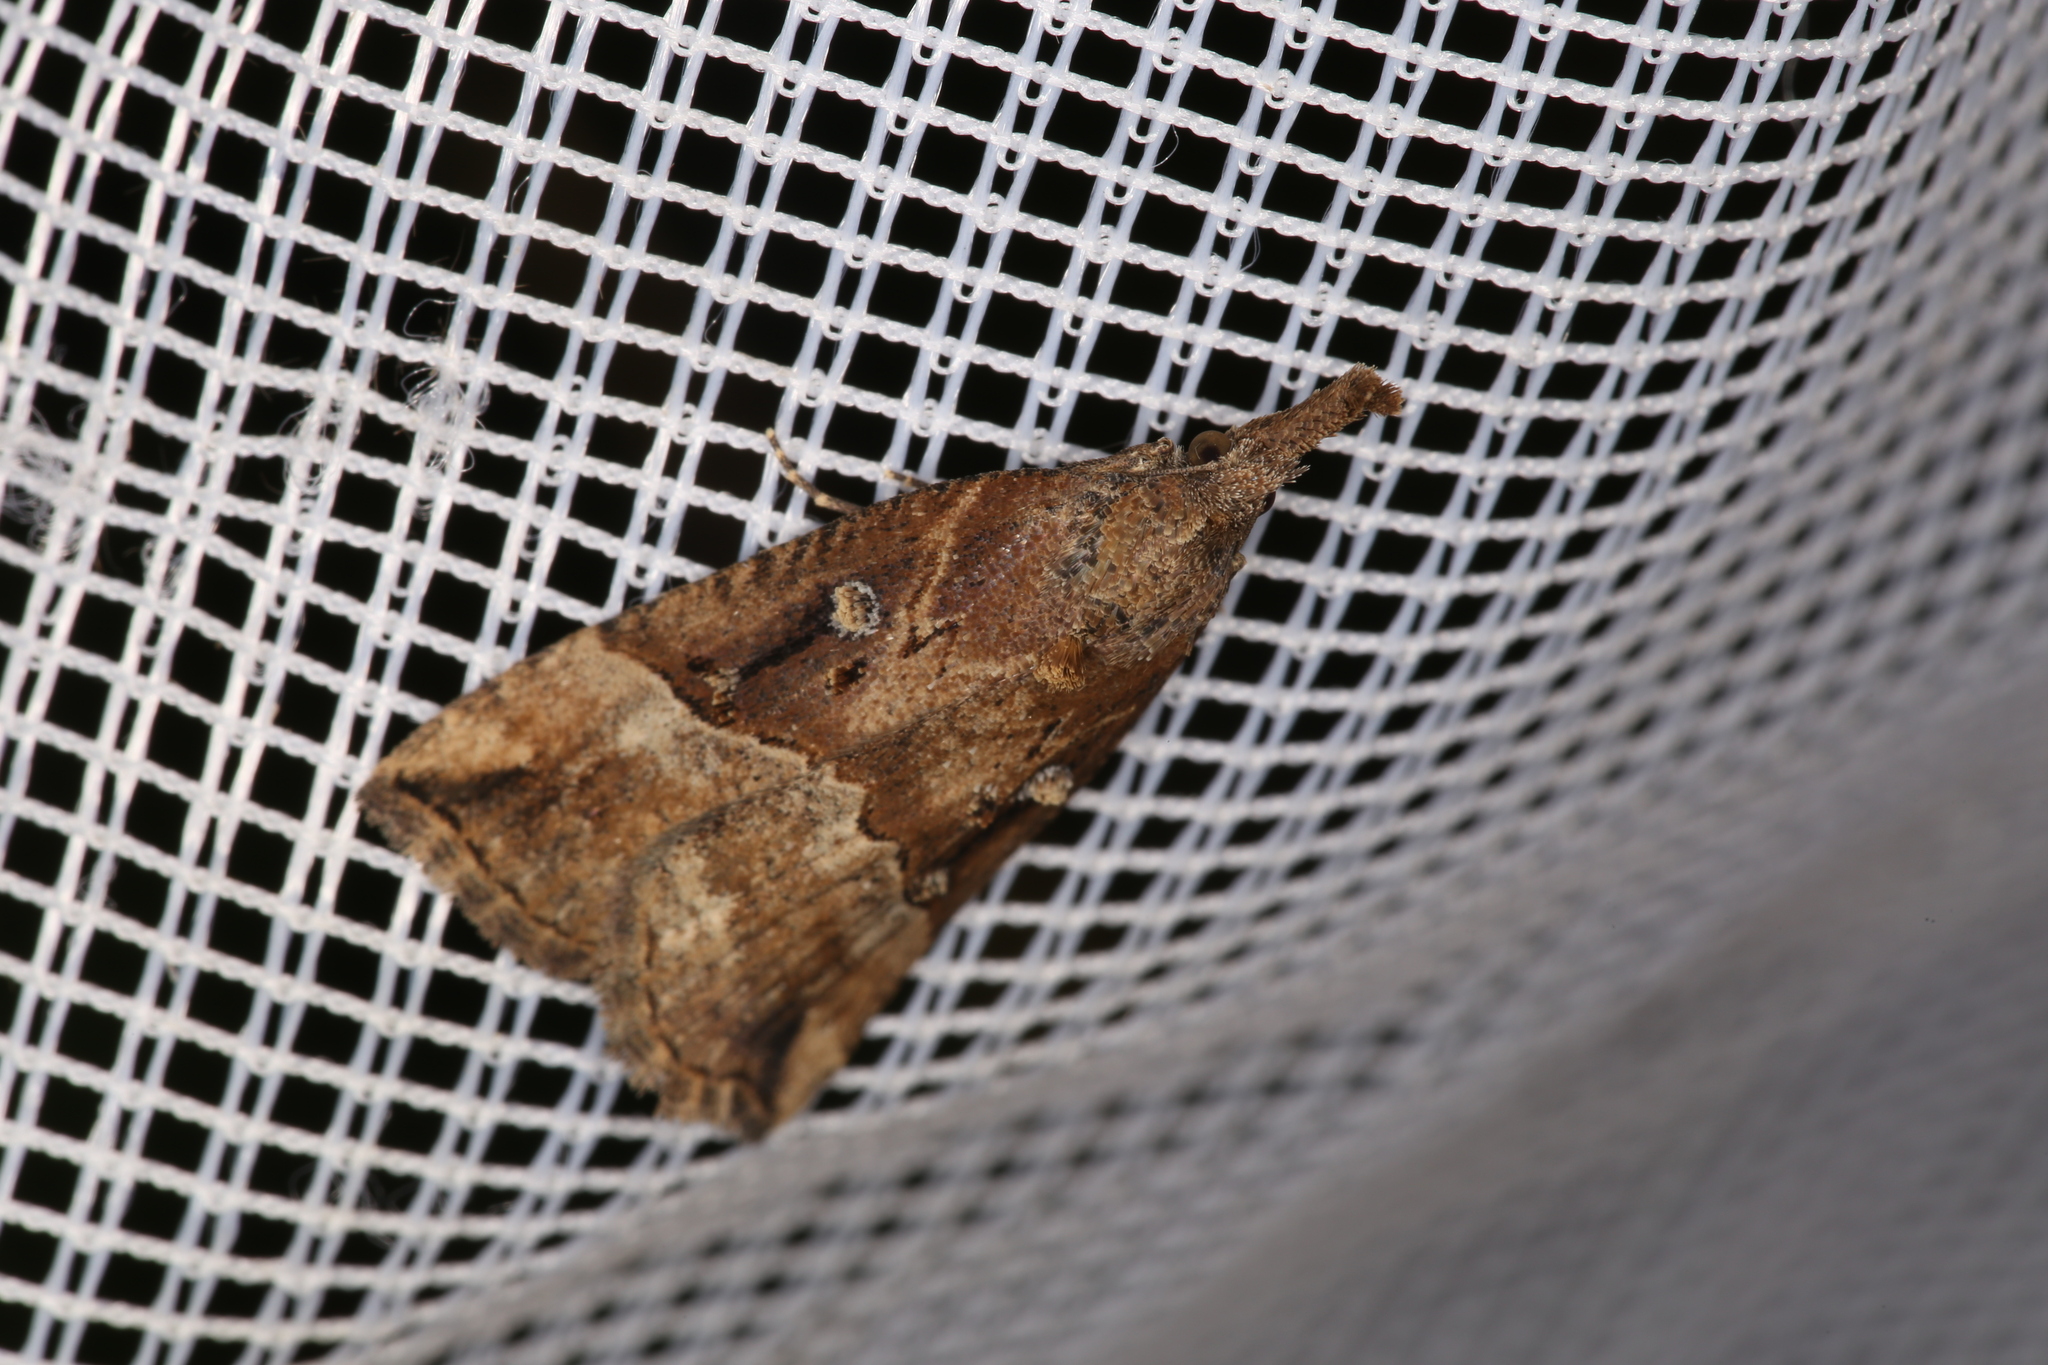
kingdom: Animalia
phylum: Arthropoda
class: Insecta
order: Lepidoptera
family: Erebidae
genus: Hypena
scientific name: Hypena rostralis
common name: Buttoned snout
